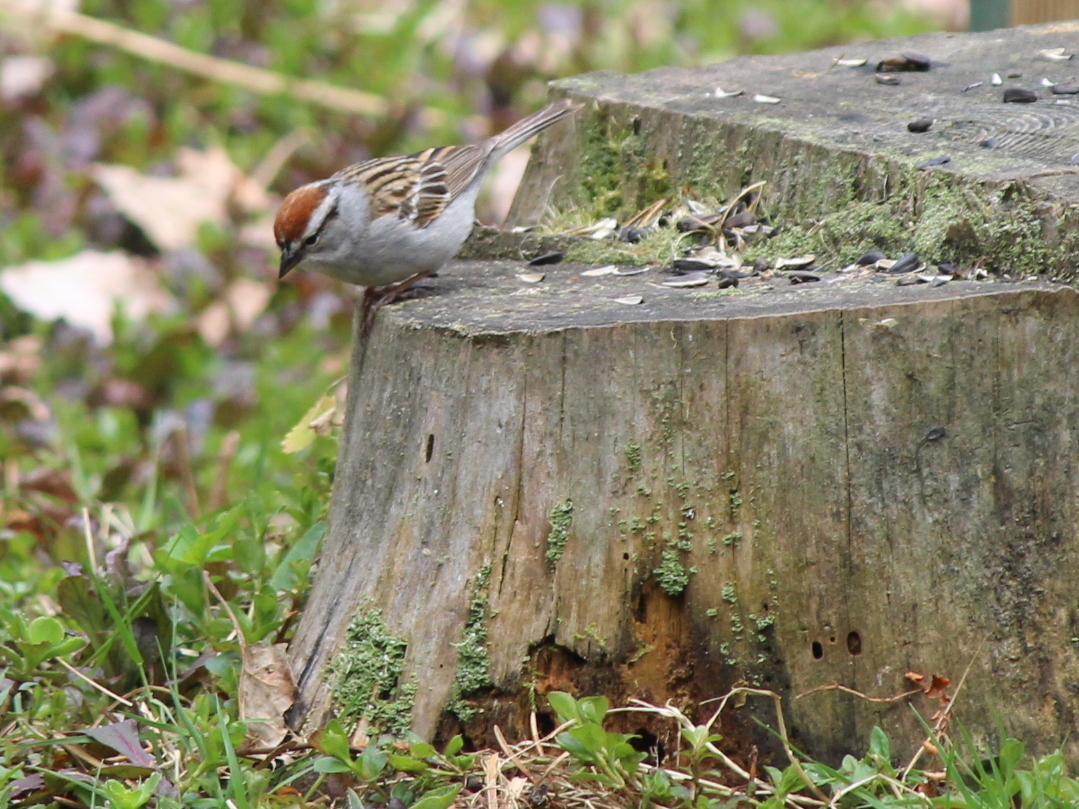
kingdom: Animalia
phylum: Chordata
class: Aves
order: Passeriformes
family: Passerellidae
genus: Spizella
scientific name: Spizella passerina
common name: Chipping sparrow
